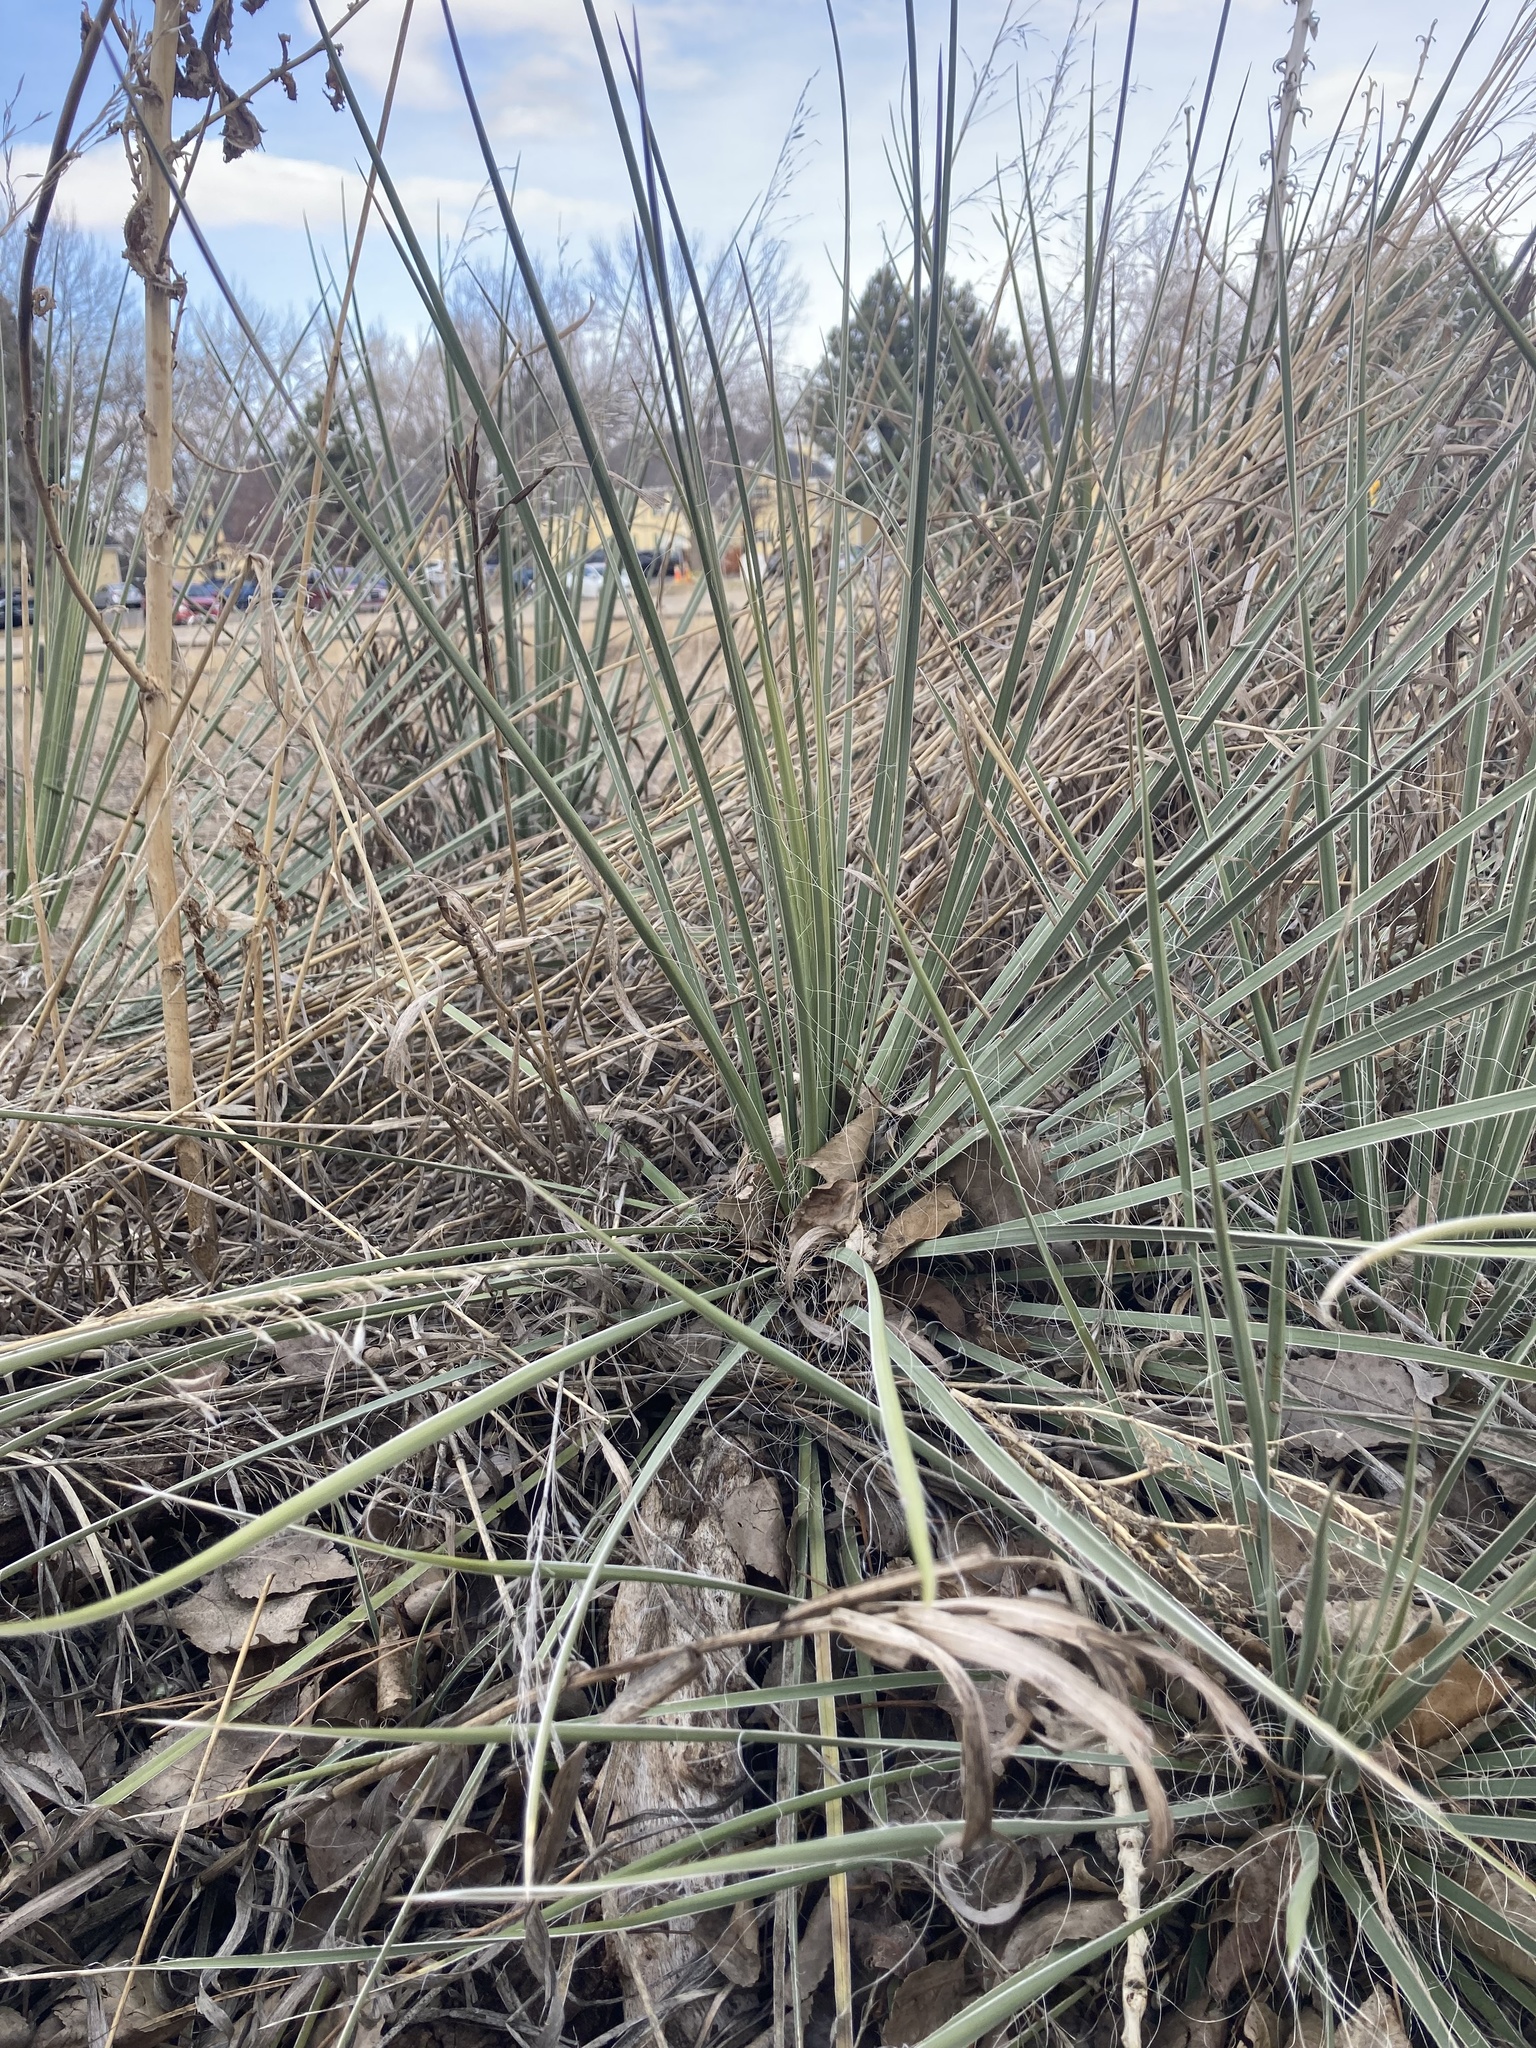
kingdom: Plantae
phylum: Tracheophyta
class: Liliopsida
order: Asparagales
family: Asparagaceae
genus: Yucca
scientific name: Yucca glauca
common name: Great plains yucca
